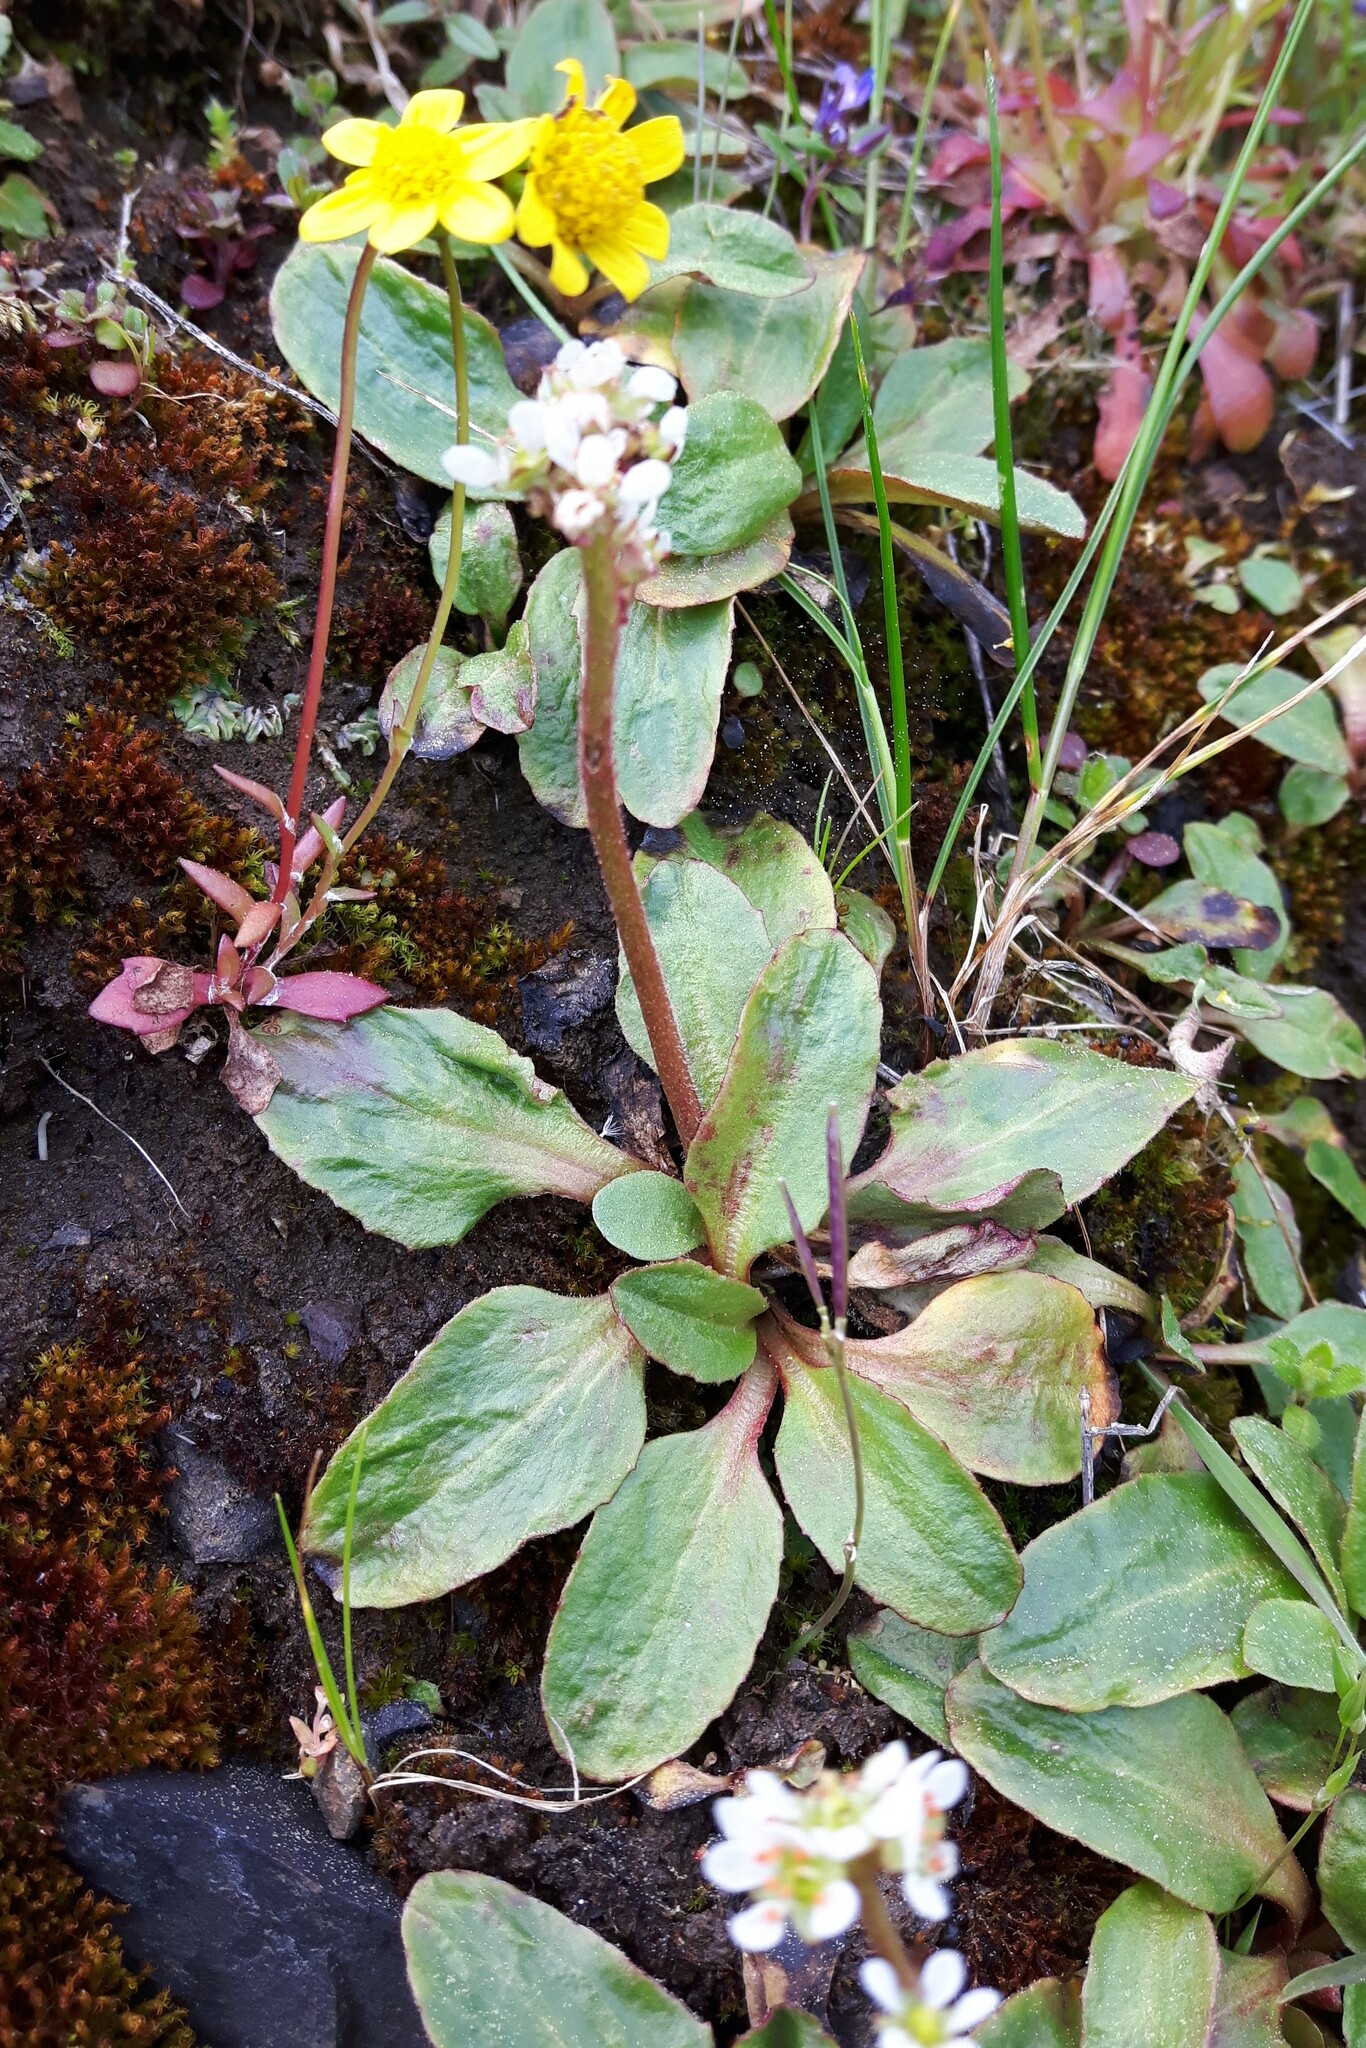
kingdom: Plantae
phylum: Tracheophyta
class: Magnoliopsida
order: Saxifragales
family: Saxifragaceae
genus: Micranthes
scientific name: Micranthes integrifolia
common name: Wholeleaf saxifrage
